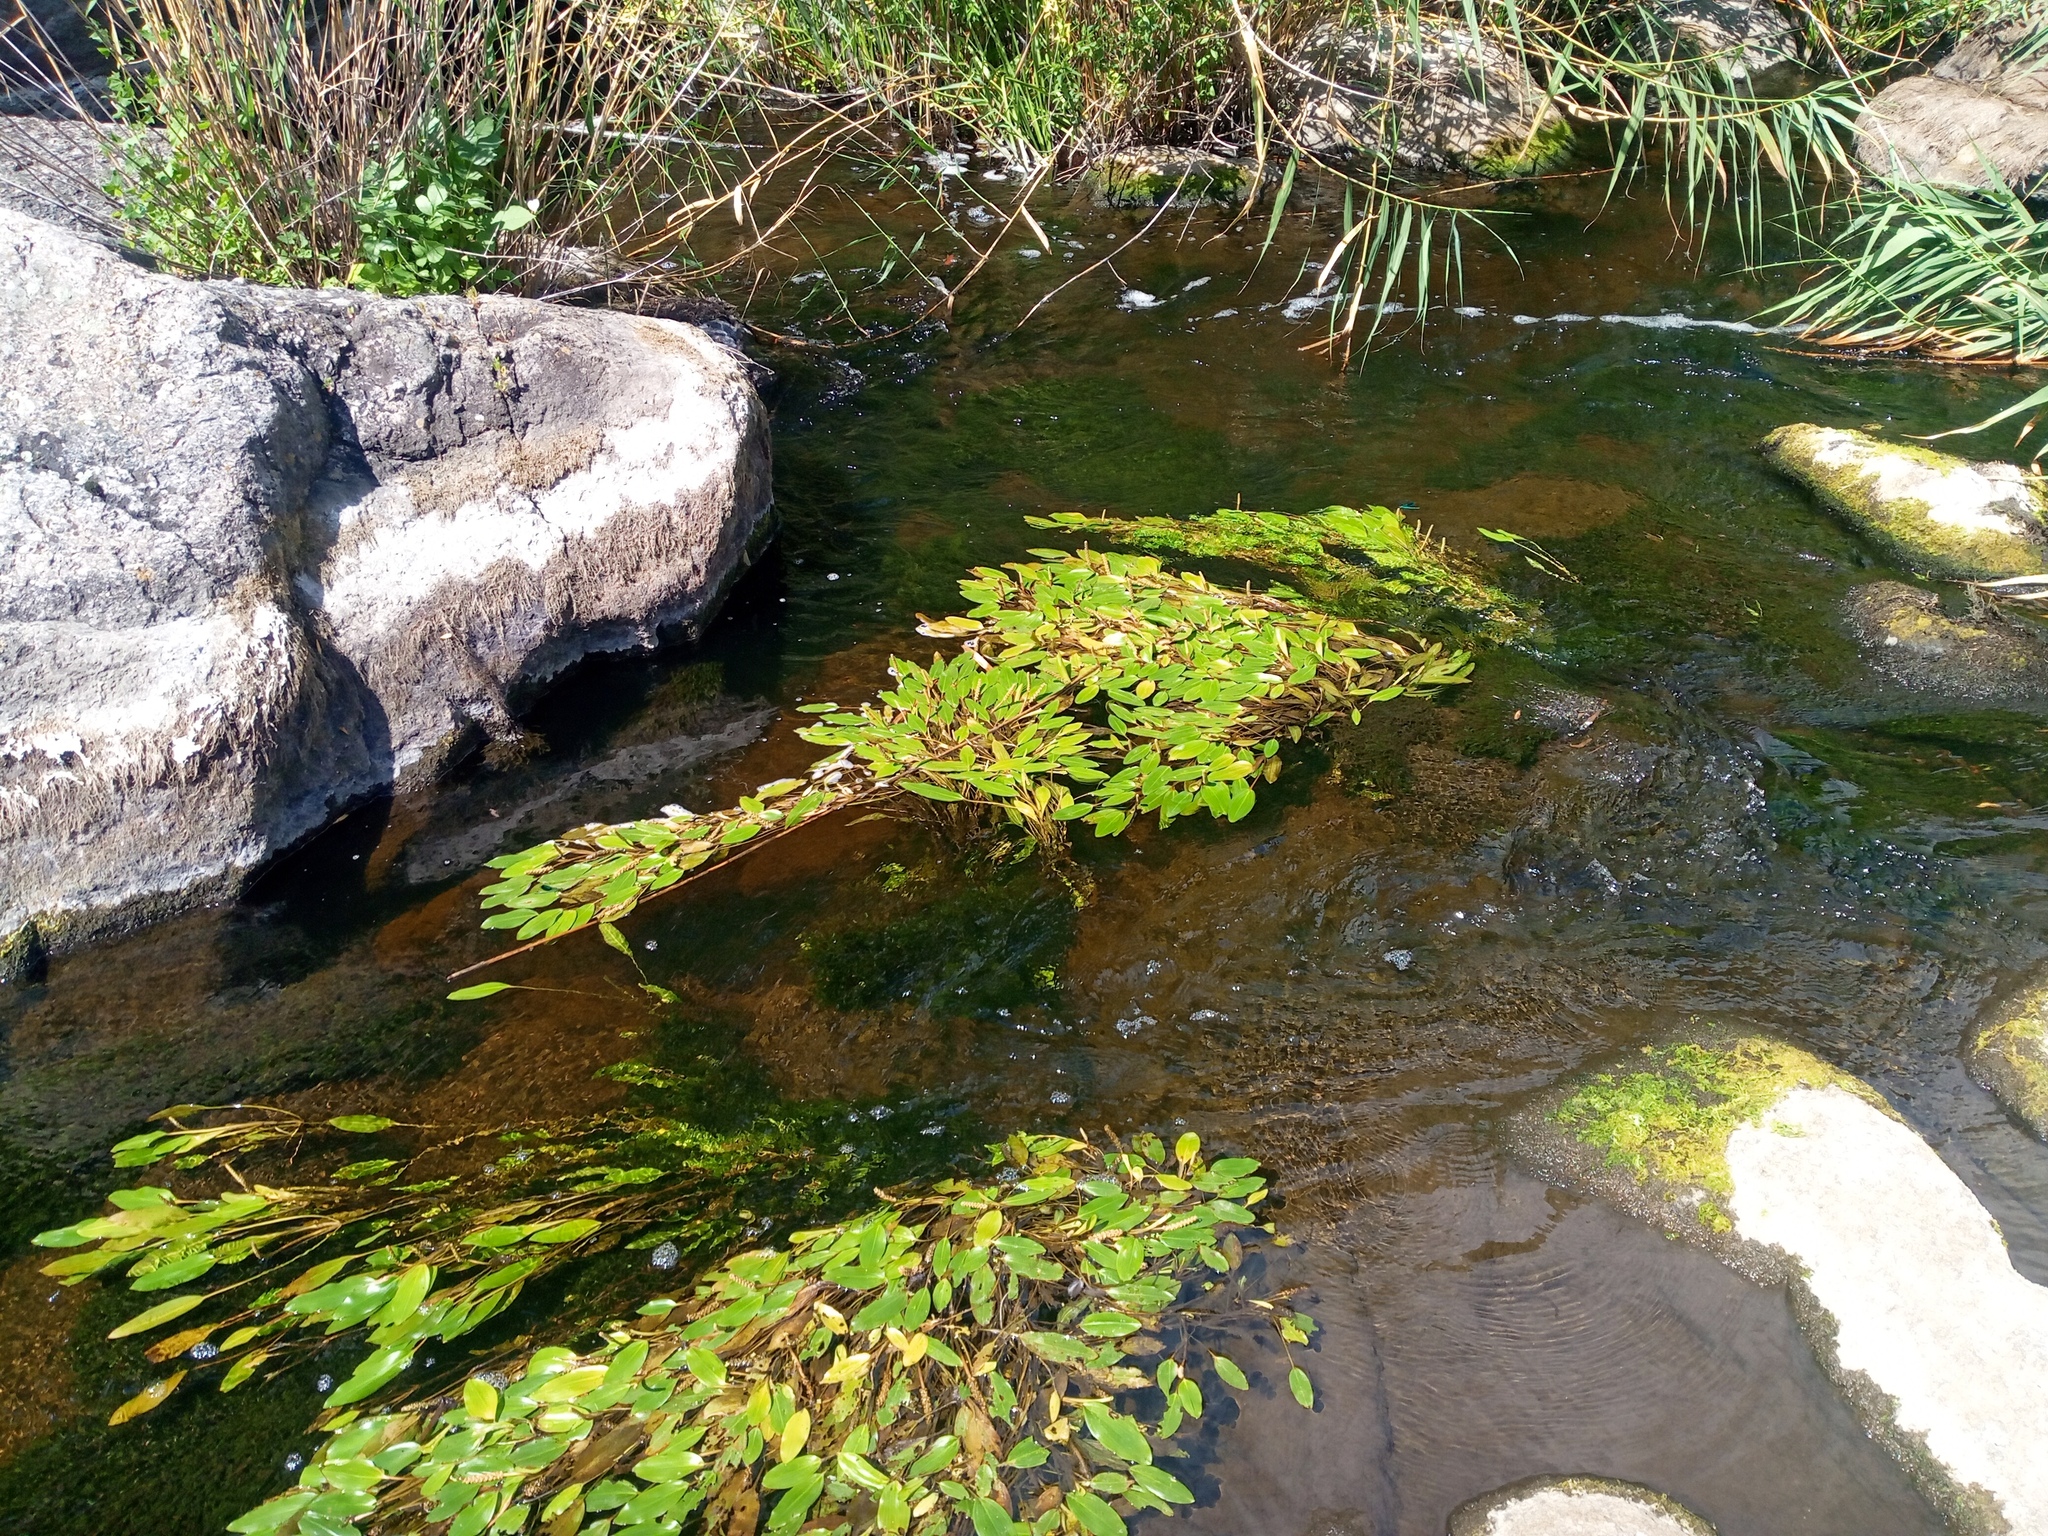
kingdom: Plantae
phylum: Tracheophyta
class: Liliopsida
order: Alismatales
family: Potamogetonaceae
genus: Potamogeton
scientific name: Potamogeton nodosus
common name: Loddon pondweed
